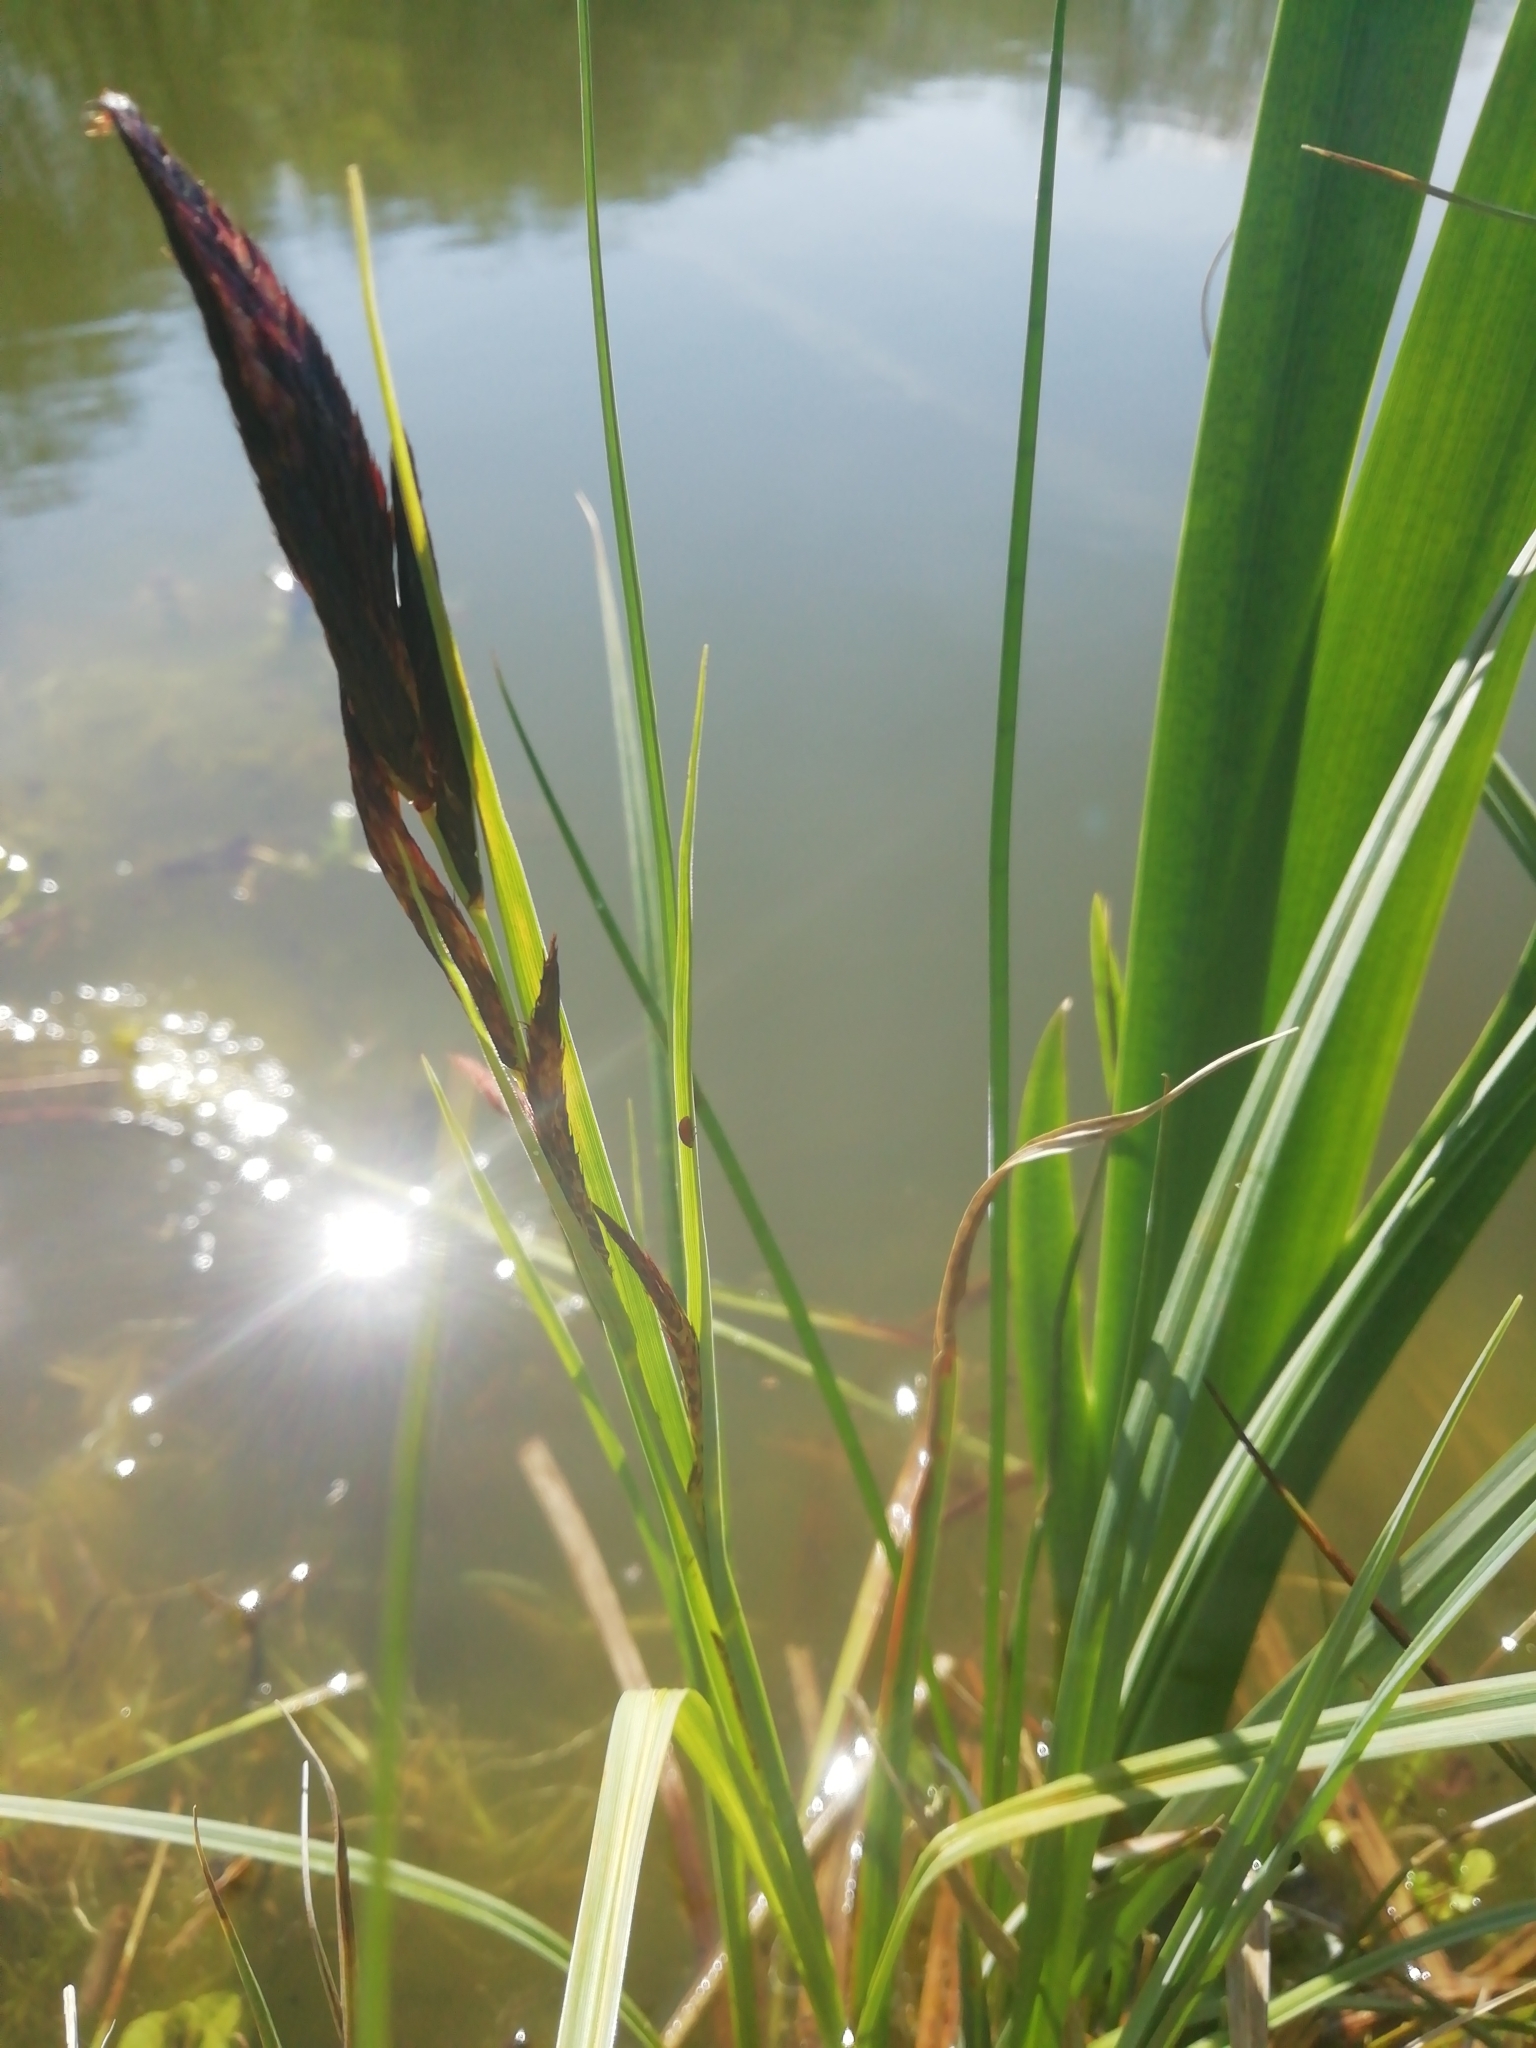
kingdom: Plantae
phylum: Tracheophyta
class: Liliopsida
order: Poales
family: Cyperaceae
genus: Carex
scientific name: Carex
